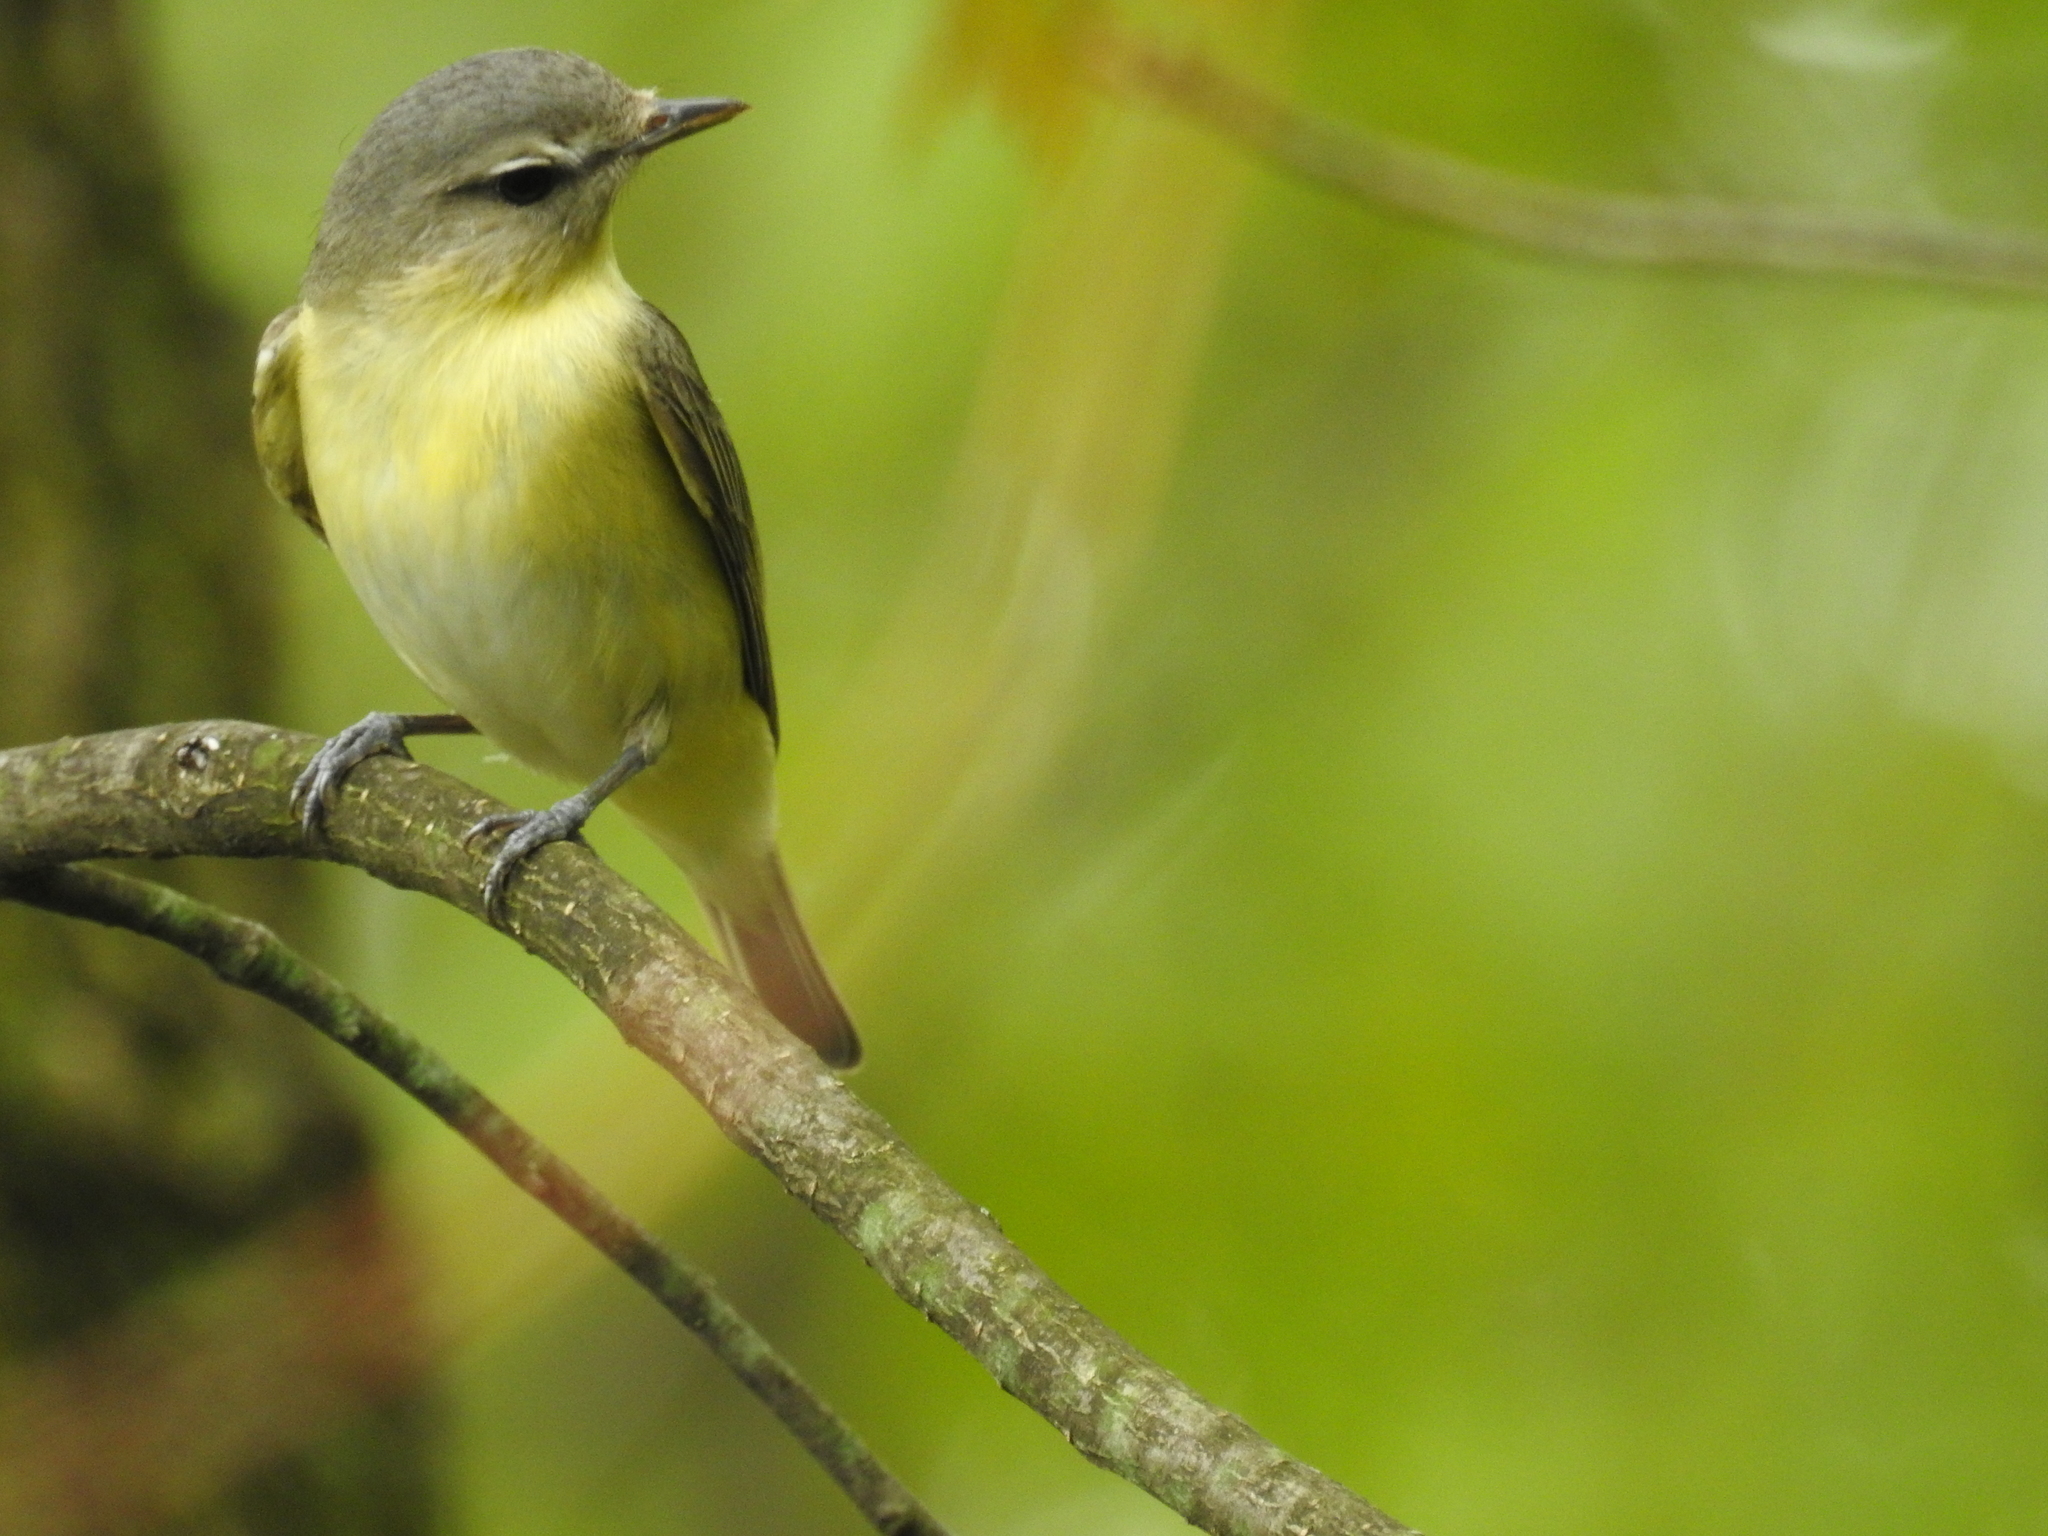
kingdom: Animalia
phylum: Chordata
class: Aves
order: Passeriformes
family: Vireonidae
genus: Vireo
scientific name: Vireo philadelphicus
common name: Philadelphia vireo
